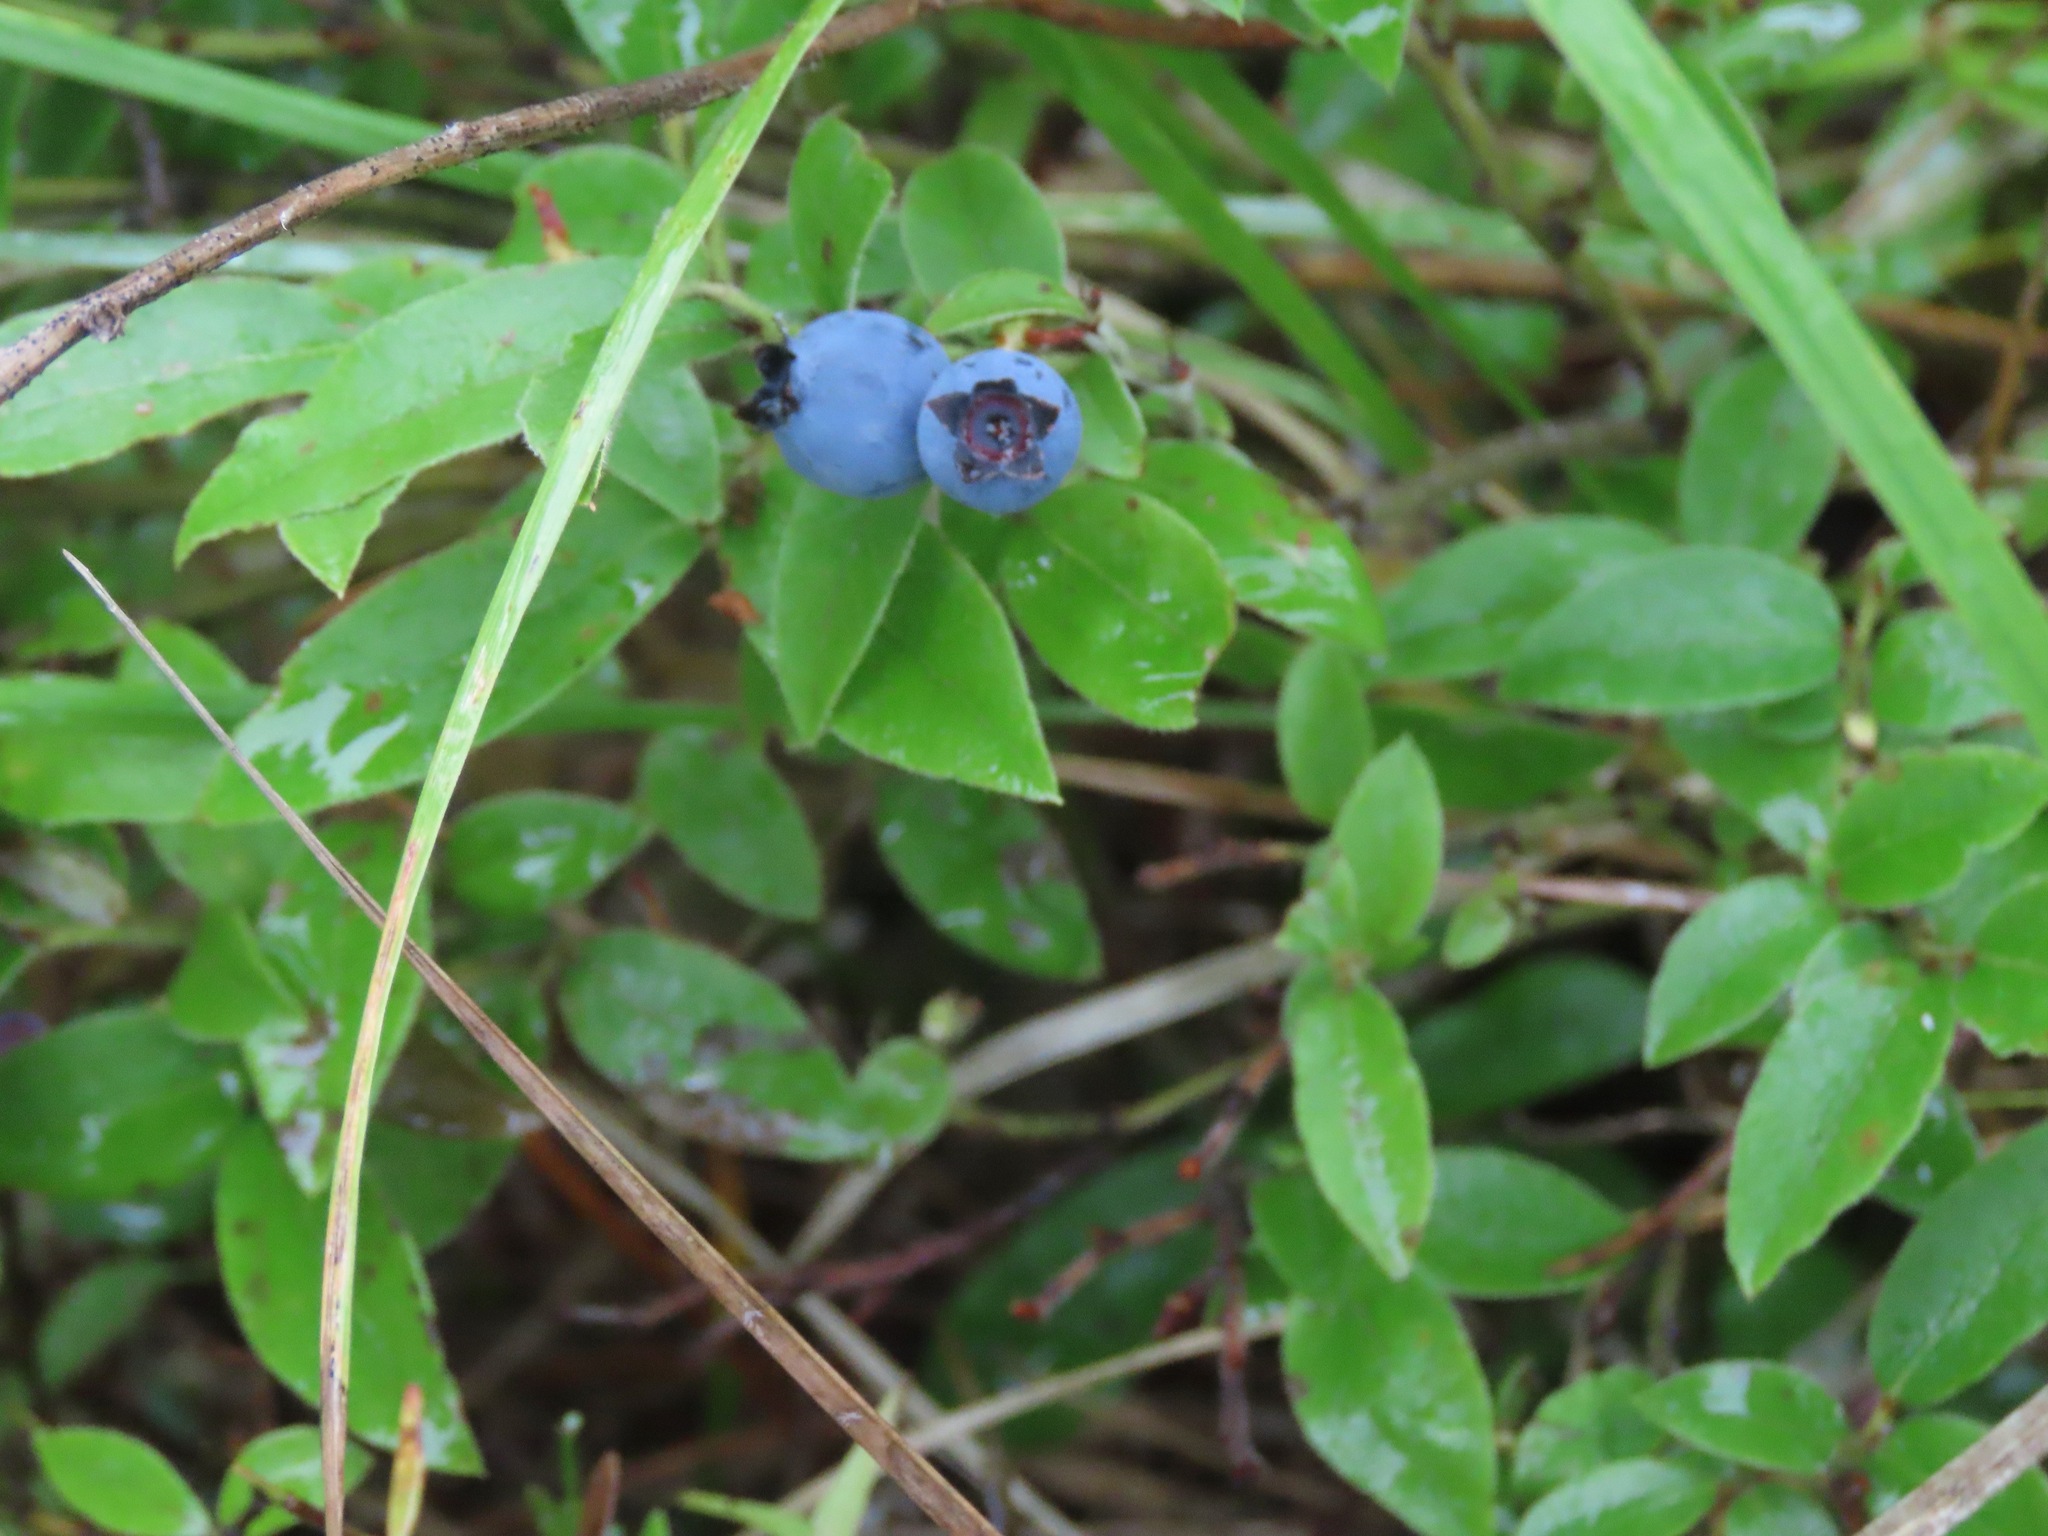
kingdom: Plantae
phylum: Tracheophyta
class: Magnoliopsida
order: Ericales
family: Ericaceae
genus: Vaccinium
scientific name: Vaccinium myrtilloides
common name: Canada blueberry
